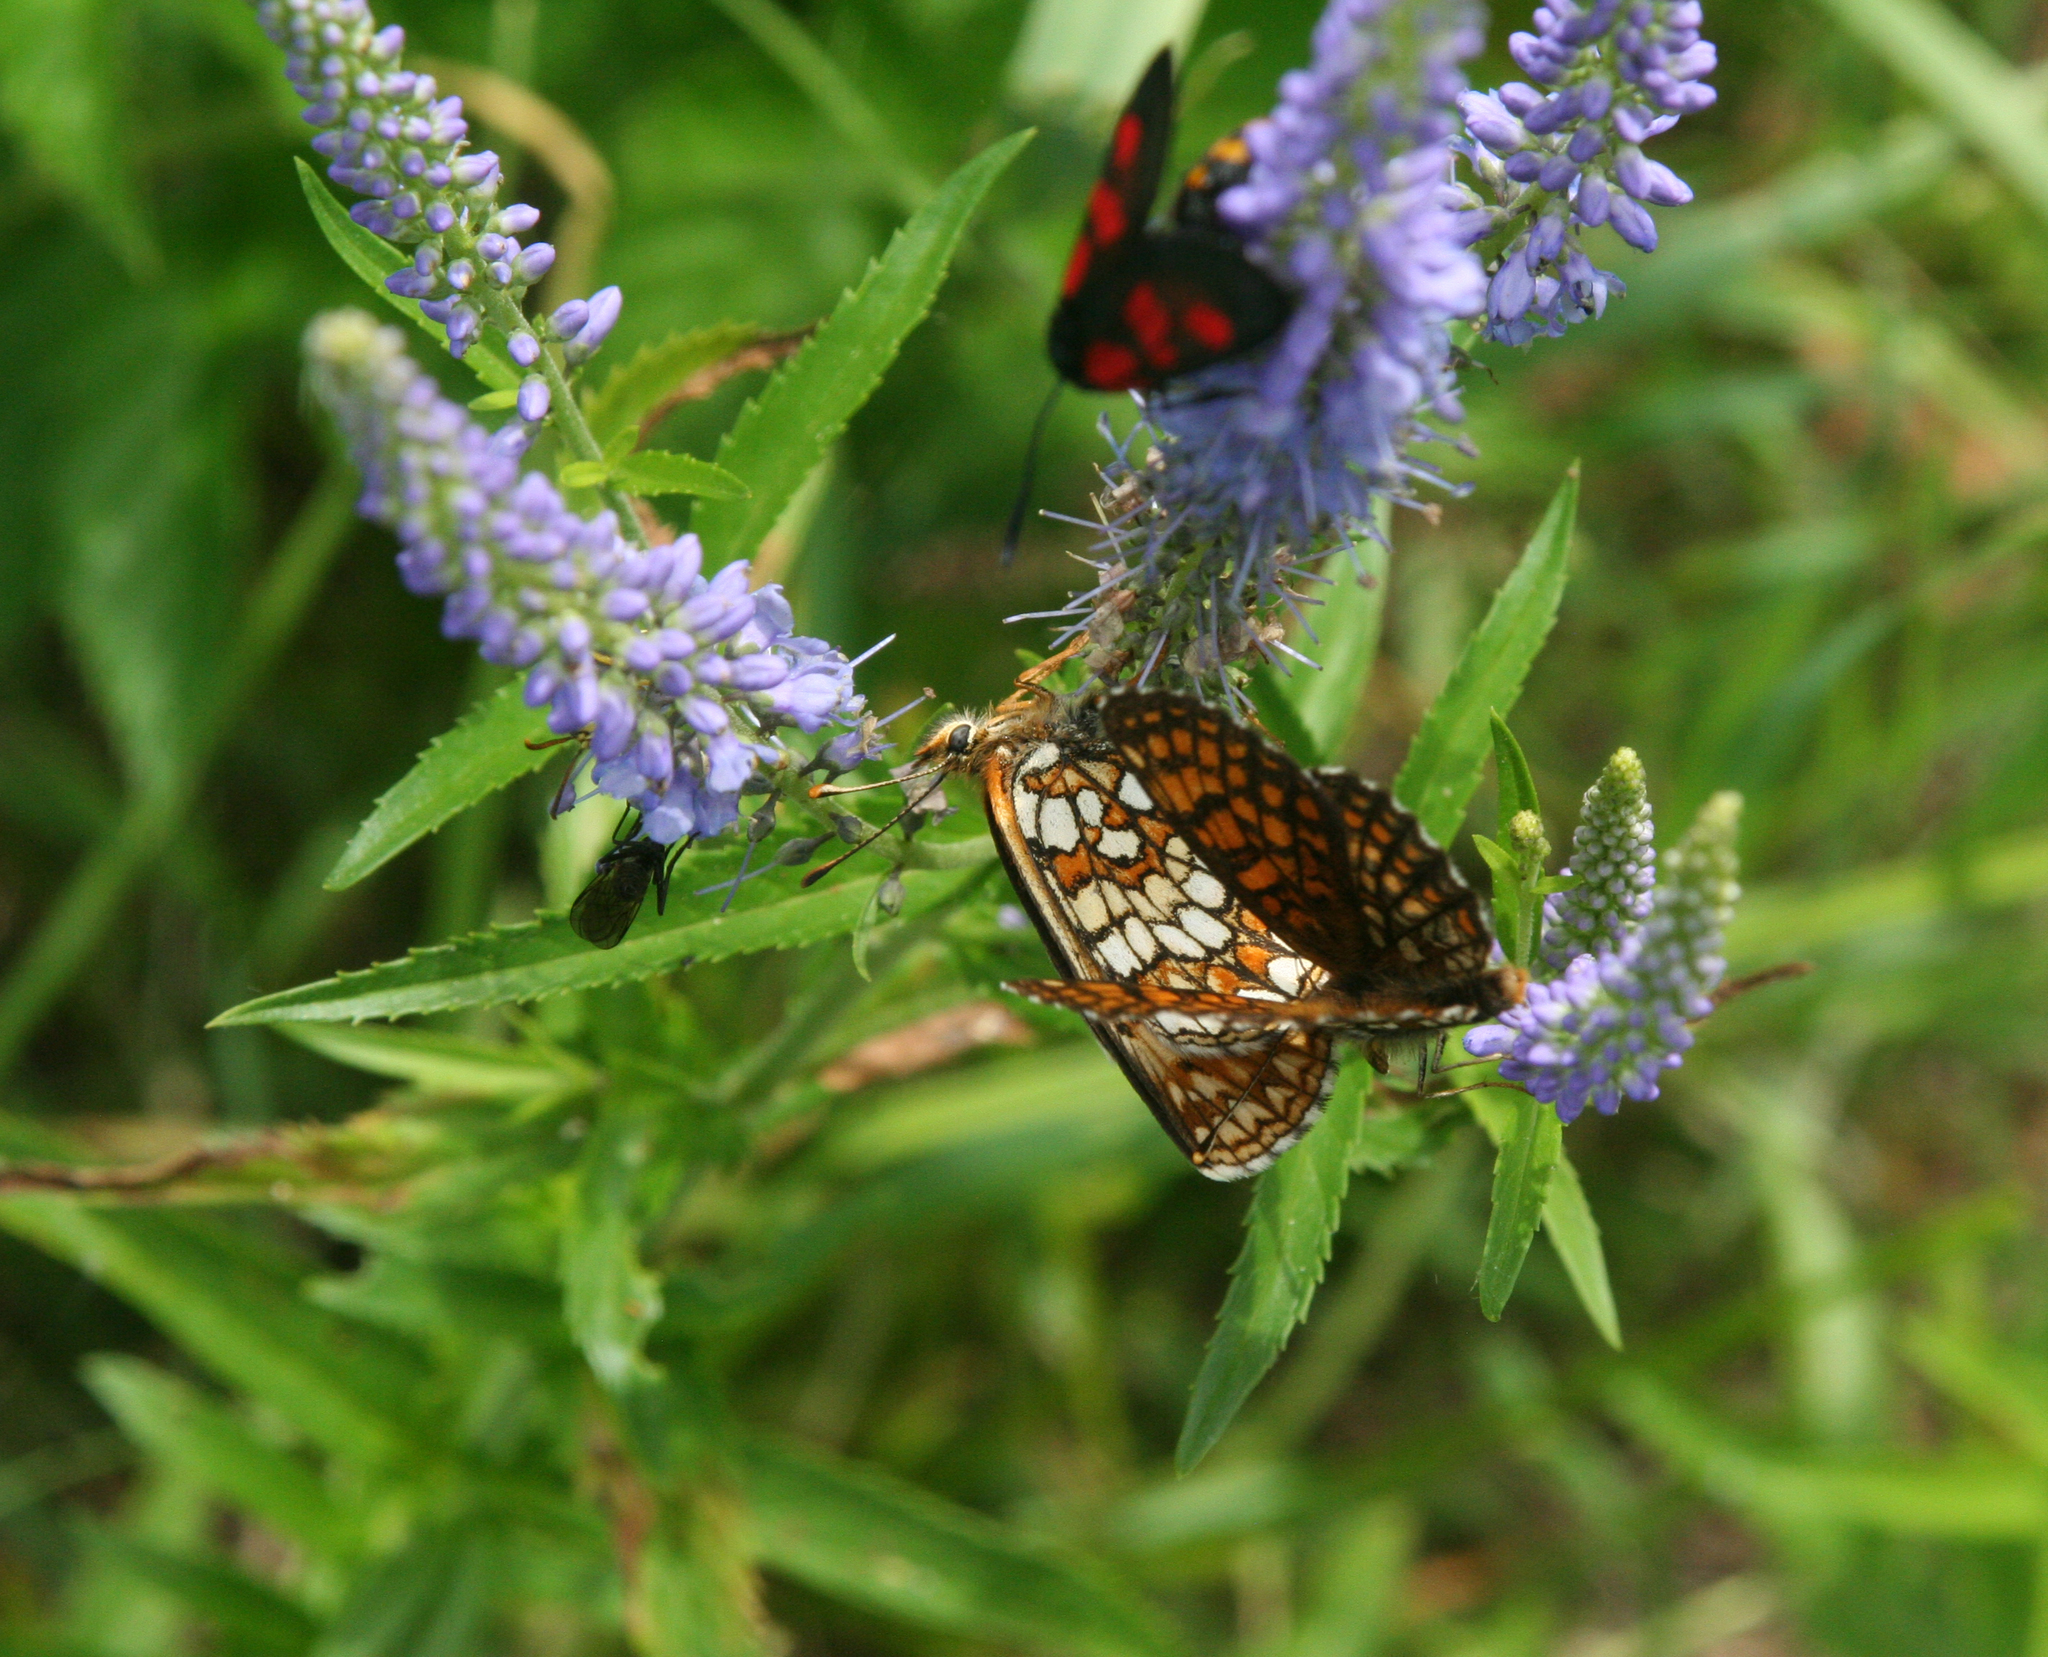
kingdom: Plantae
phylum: Tracheophyta
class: Magnoliopsida
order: Lamiales
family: Plantaginaceae
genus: Veronica
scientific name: Veronica longifolia
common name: Garden speedwell
